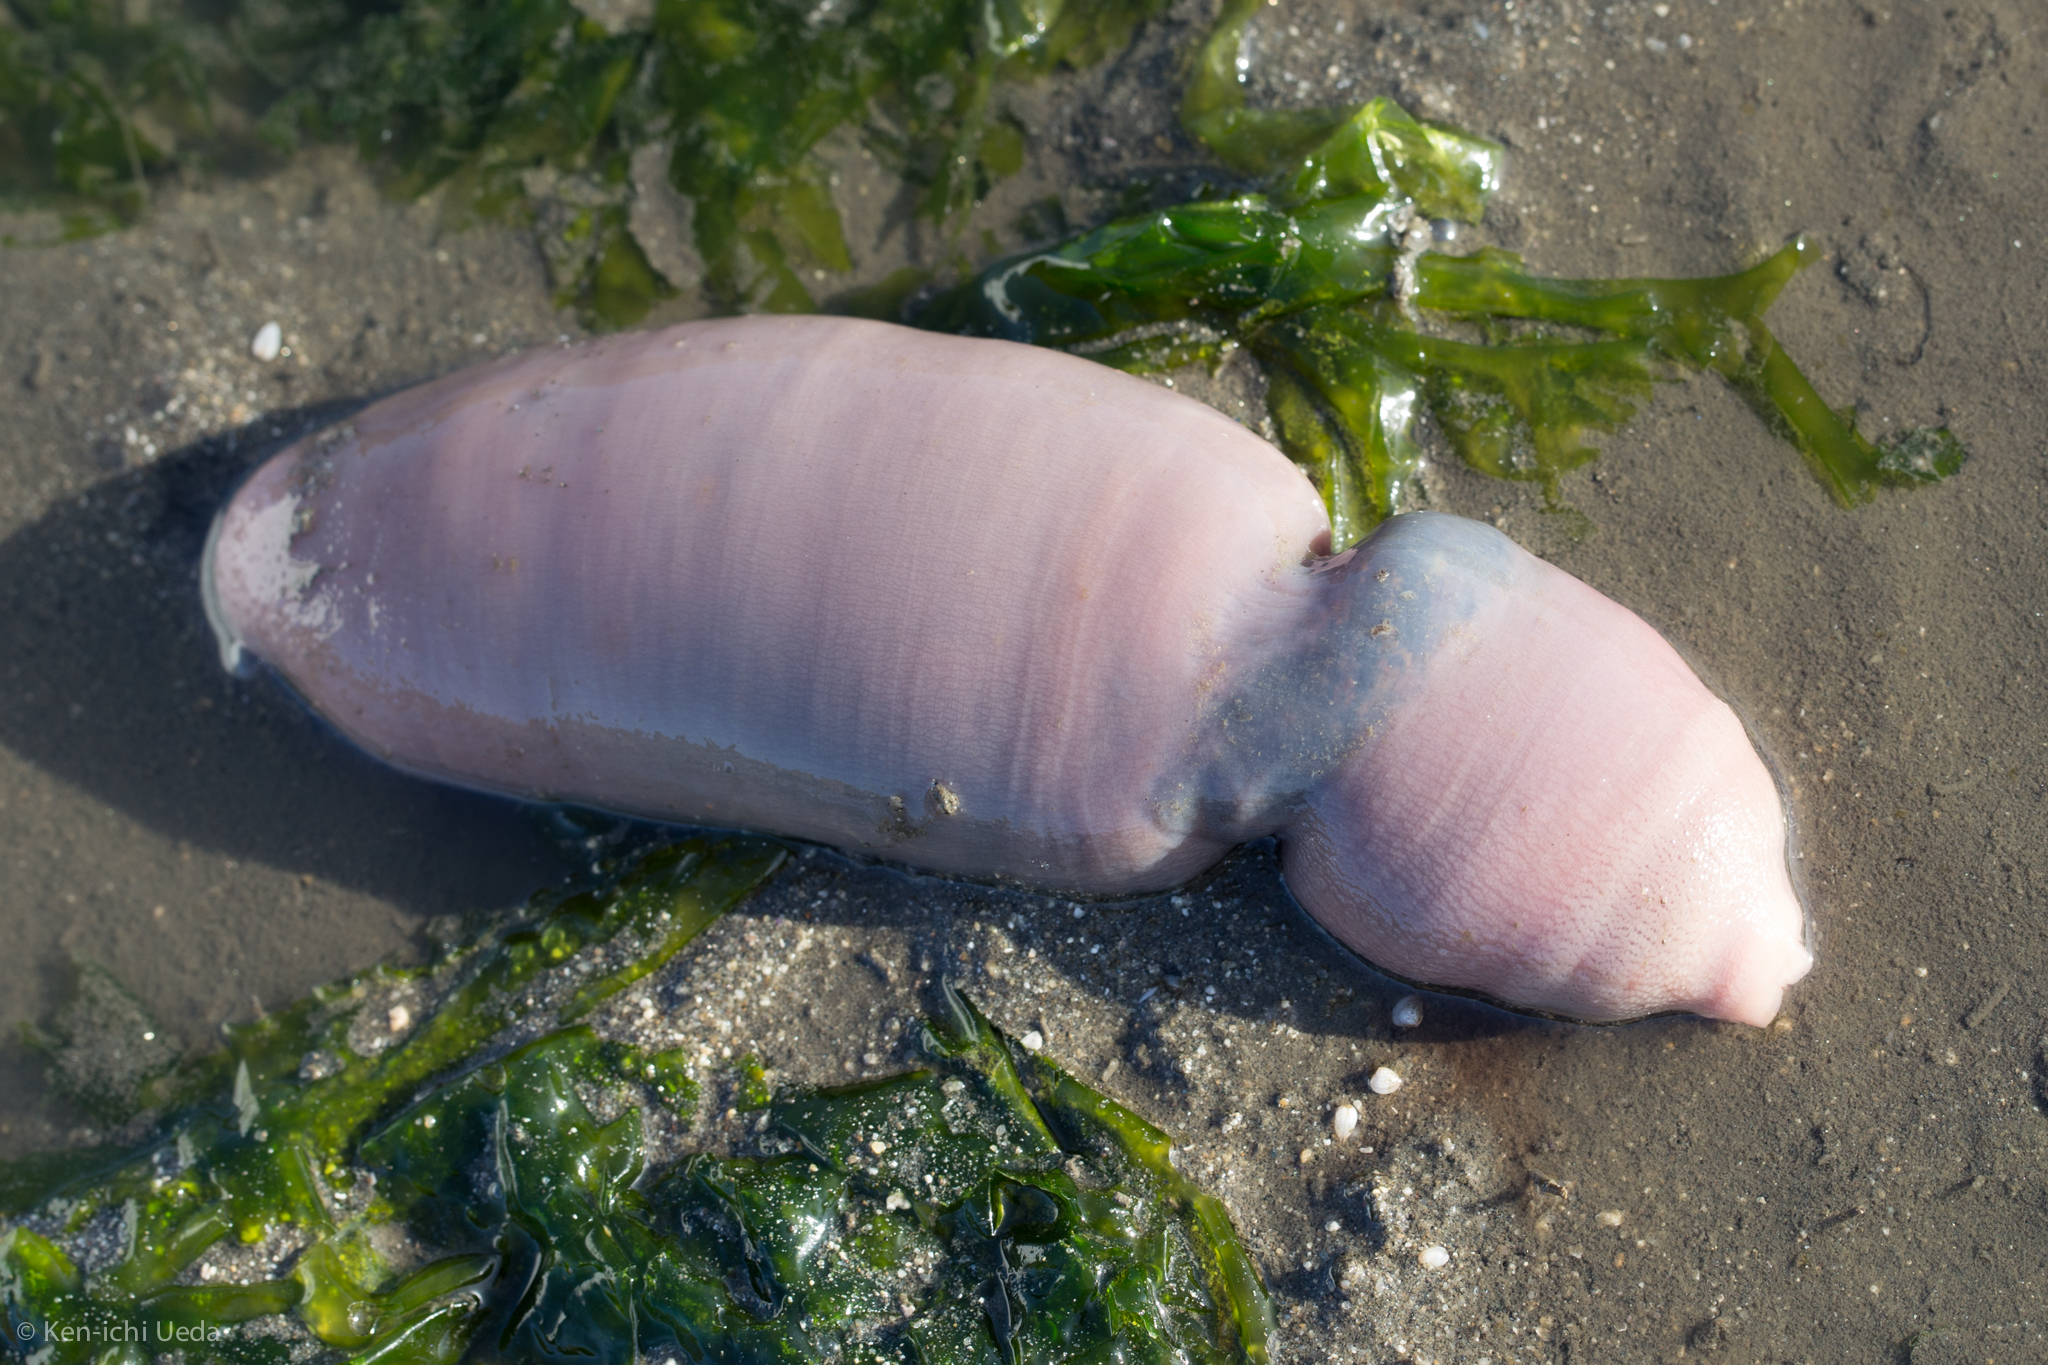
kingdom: Animalia
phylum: Annelida
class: Polychaeta
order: Echiuroidea
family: Urechidae
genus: Urechis
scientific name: Urechis caupo
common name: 'penis fish' or 'penis worm'
